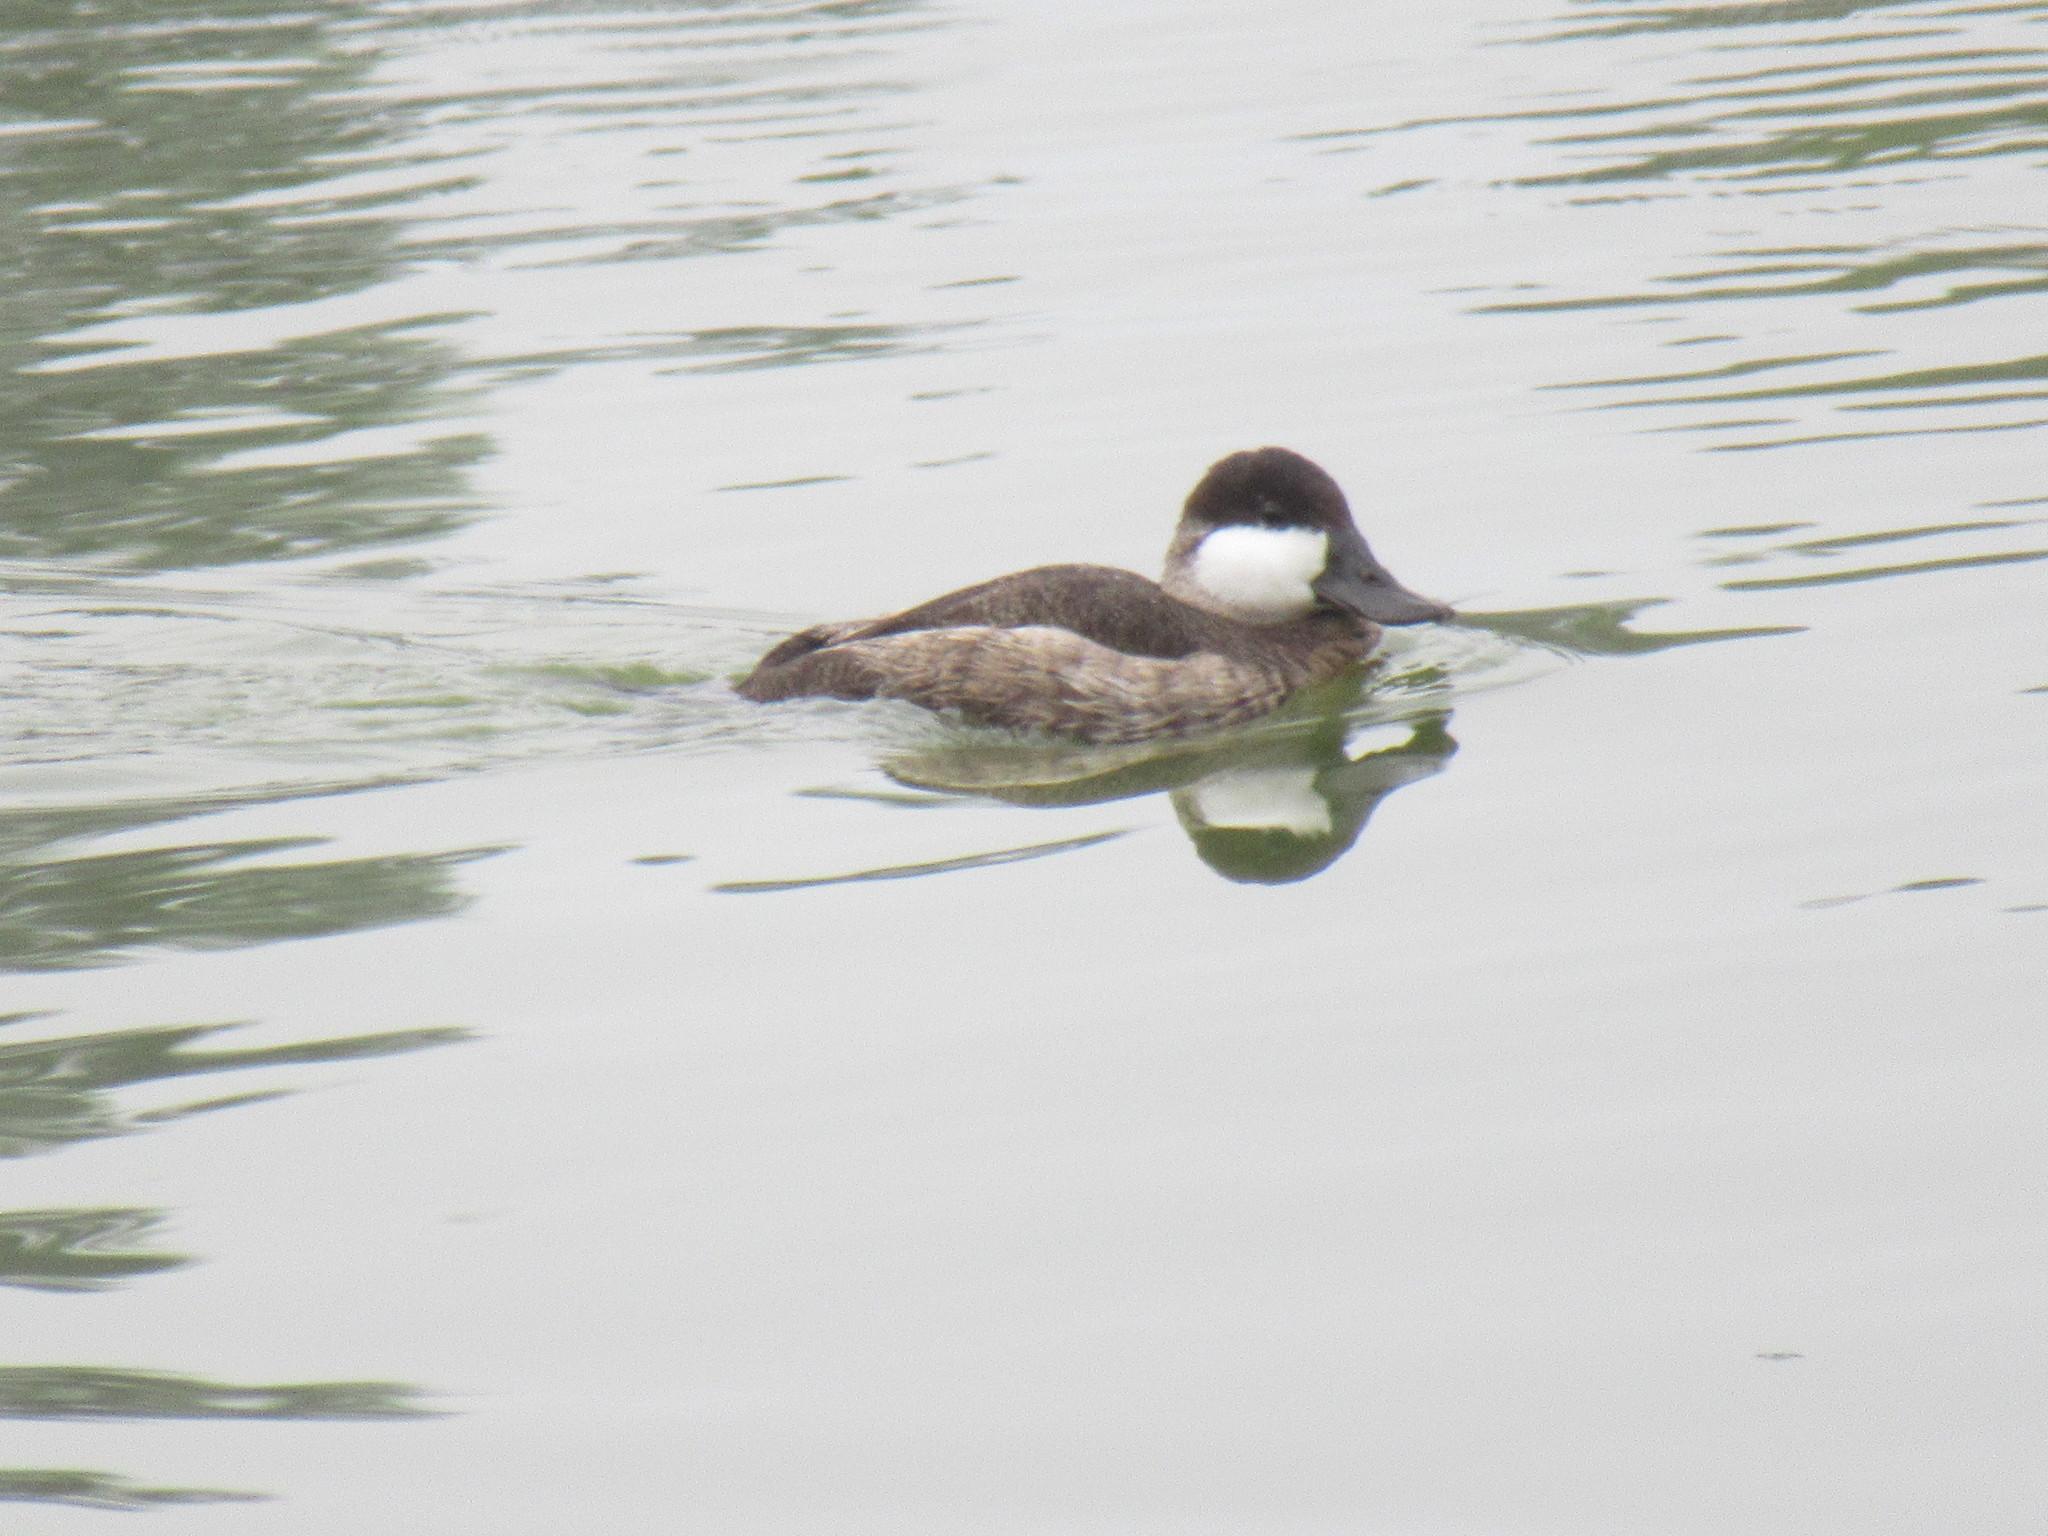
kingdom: Animalia
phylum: Chordata
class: Aves
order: Anseriformes
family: Anatidae
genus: Oxyura
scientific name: Oxyura jamaicensis
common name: Ruddy duck
